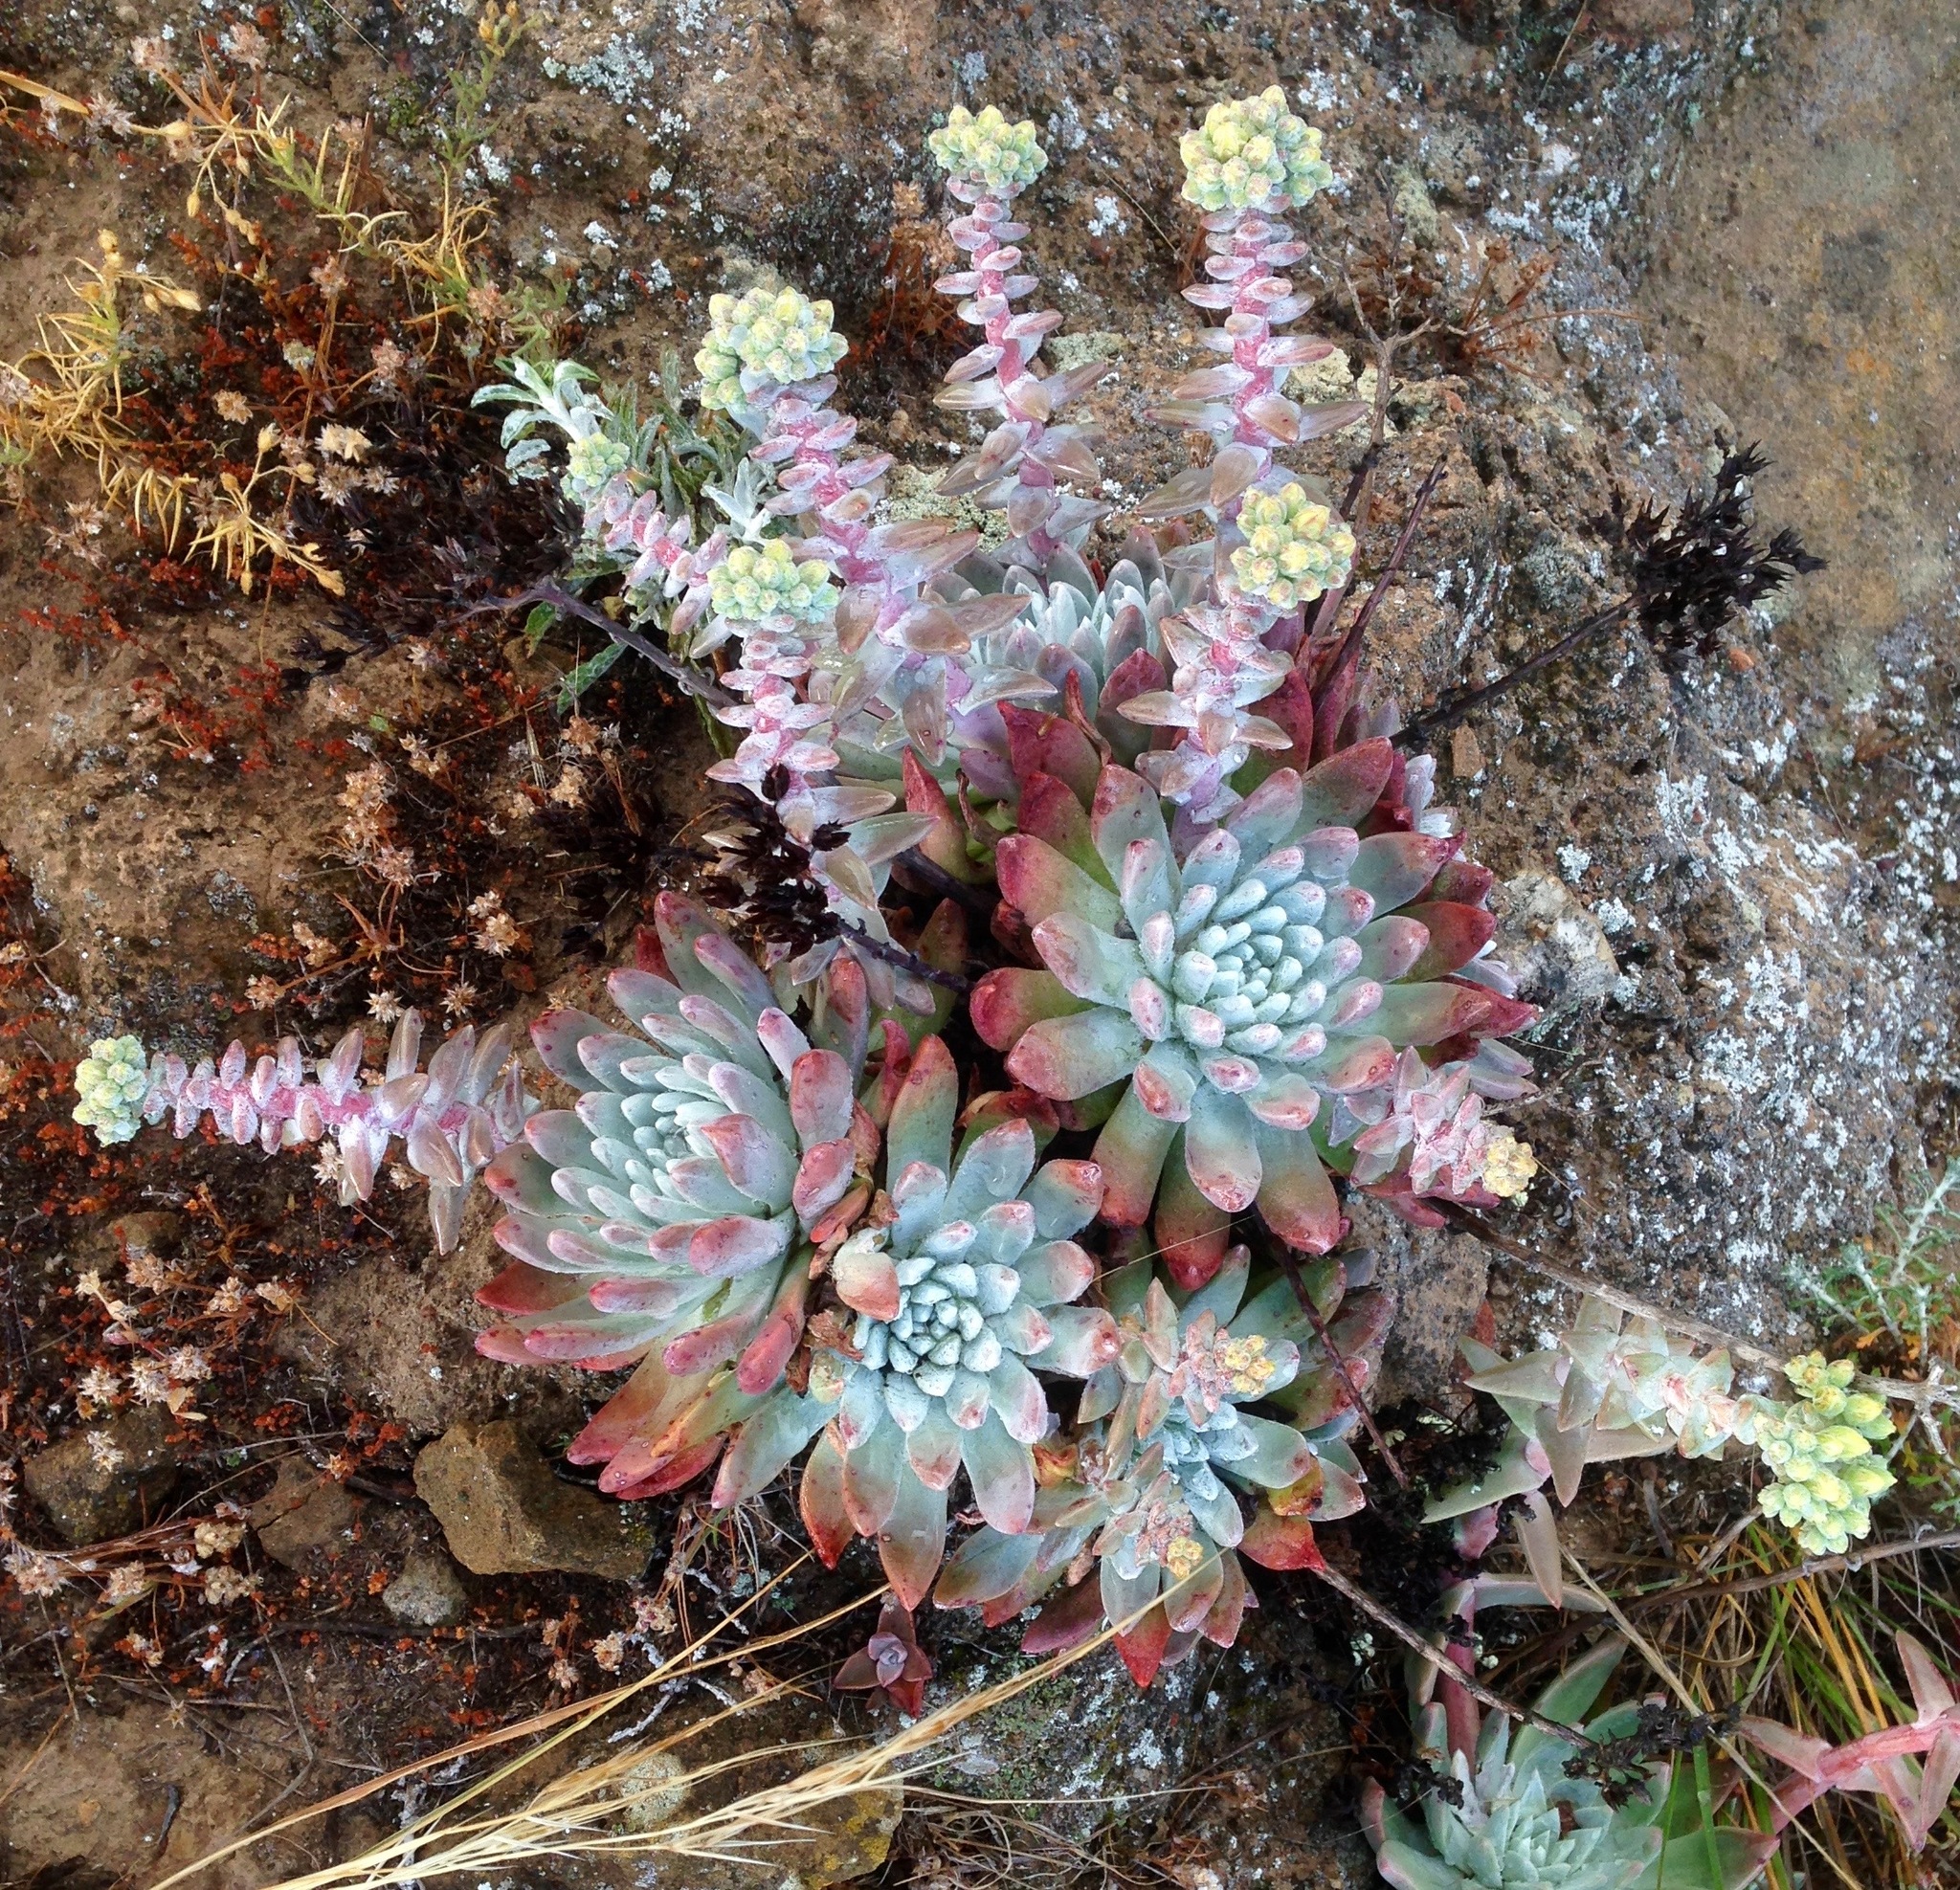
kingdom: Plantae
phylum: Tracheophyta
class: Magnoliopsida
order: Saxifragales
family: Crassulaceae
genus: Dudleya
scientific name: Dudleya greenei
